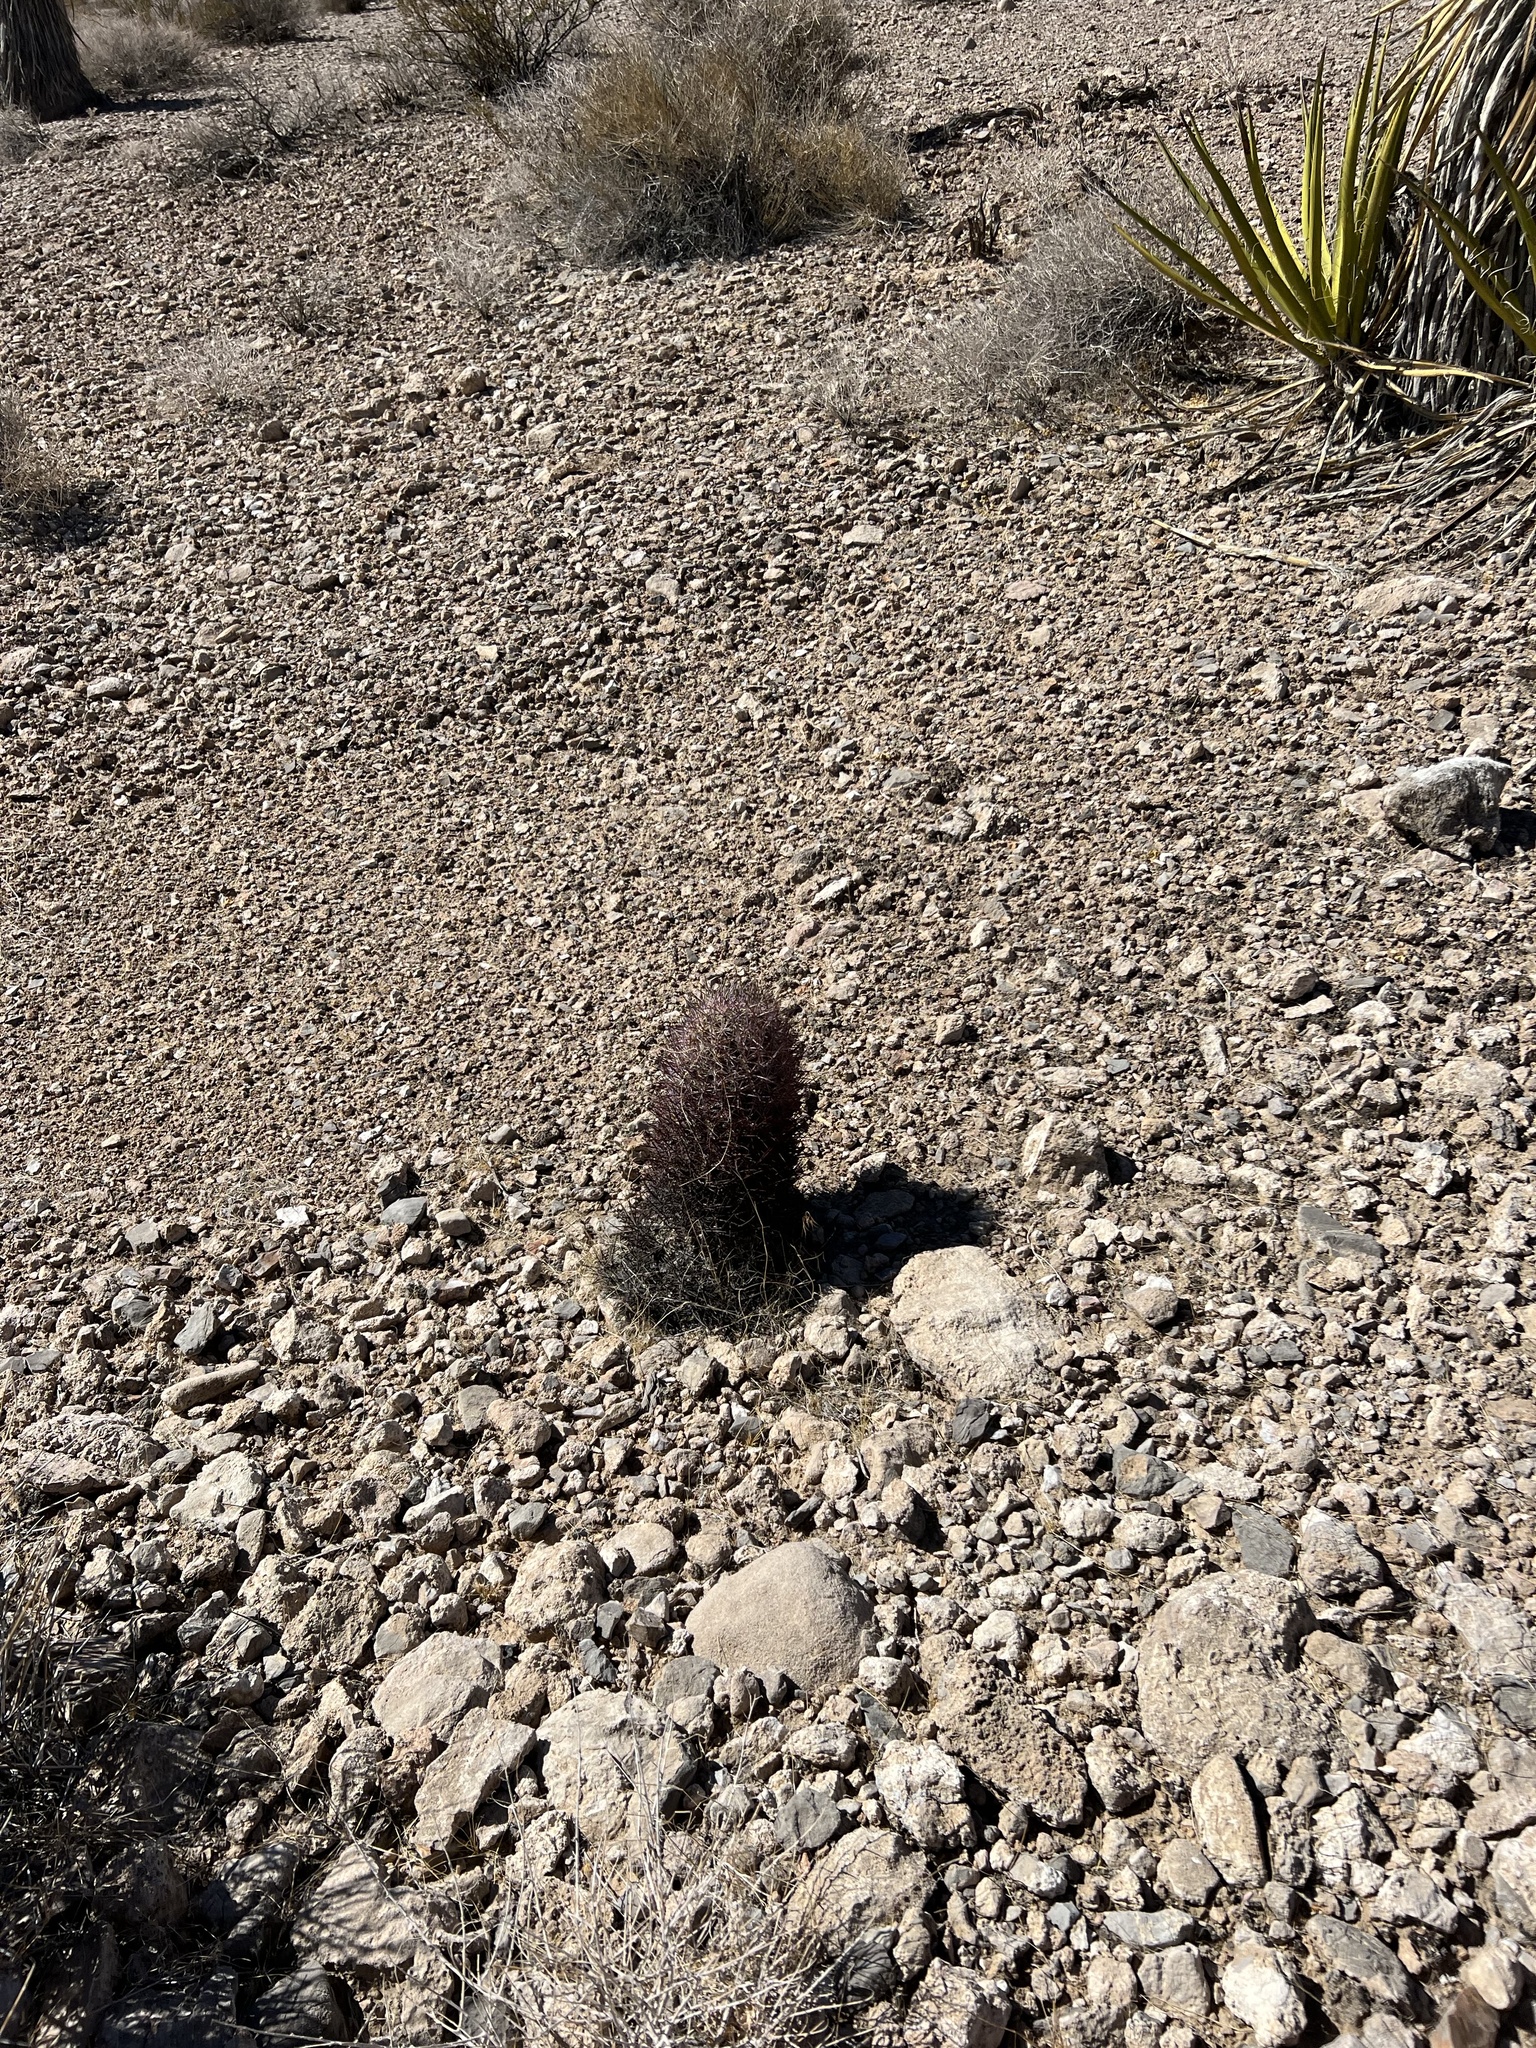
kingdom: Plantae
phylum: Tracheophyta
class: Magnoliopsida
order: Caryophyllales
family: Cactaceae
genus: Sclerocactus
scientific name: Sclerocactus johnsonii
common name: Eight-spine fishhook cactus
